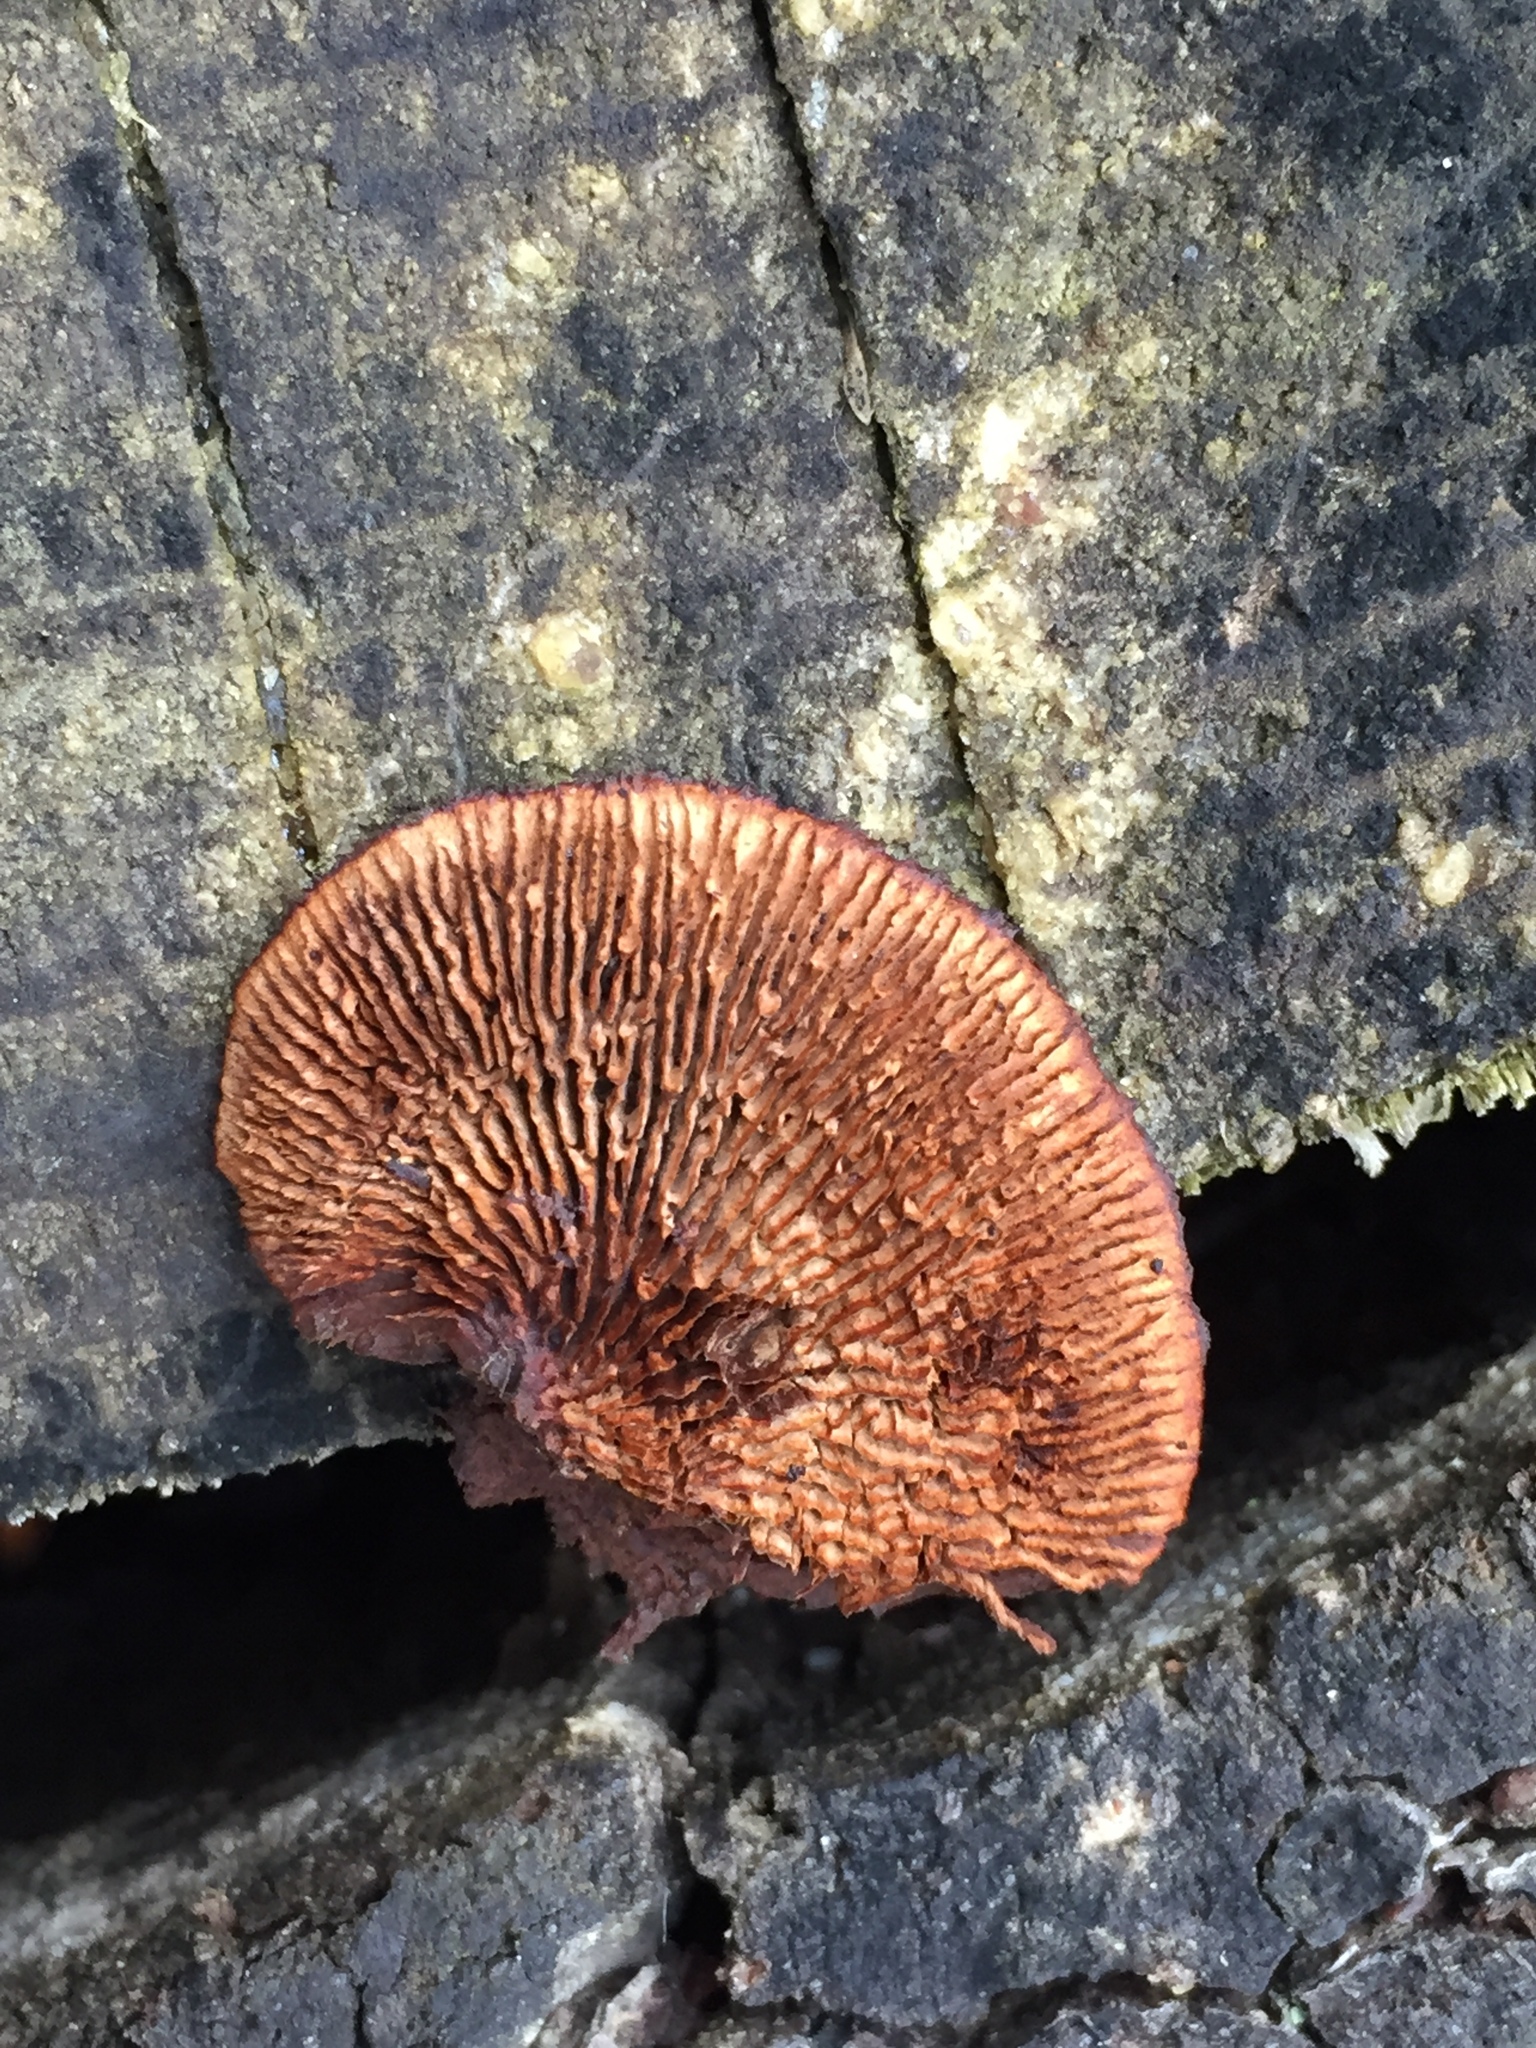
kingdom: Fungi
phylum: Basidiomycota
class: Agaricomycetes
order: Gloeophyllales
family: Gloeophyllaceae
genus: Gloeophyllum
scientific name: Gloeophyllum sepiarium
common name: Conifer mazegill
